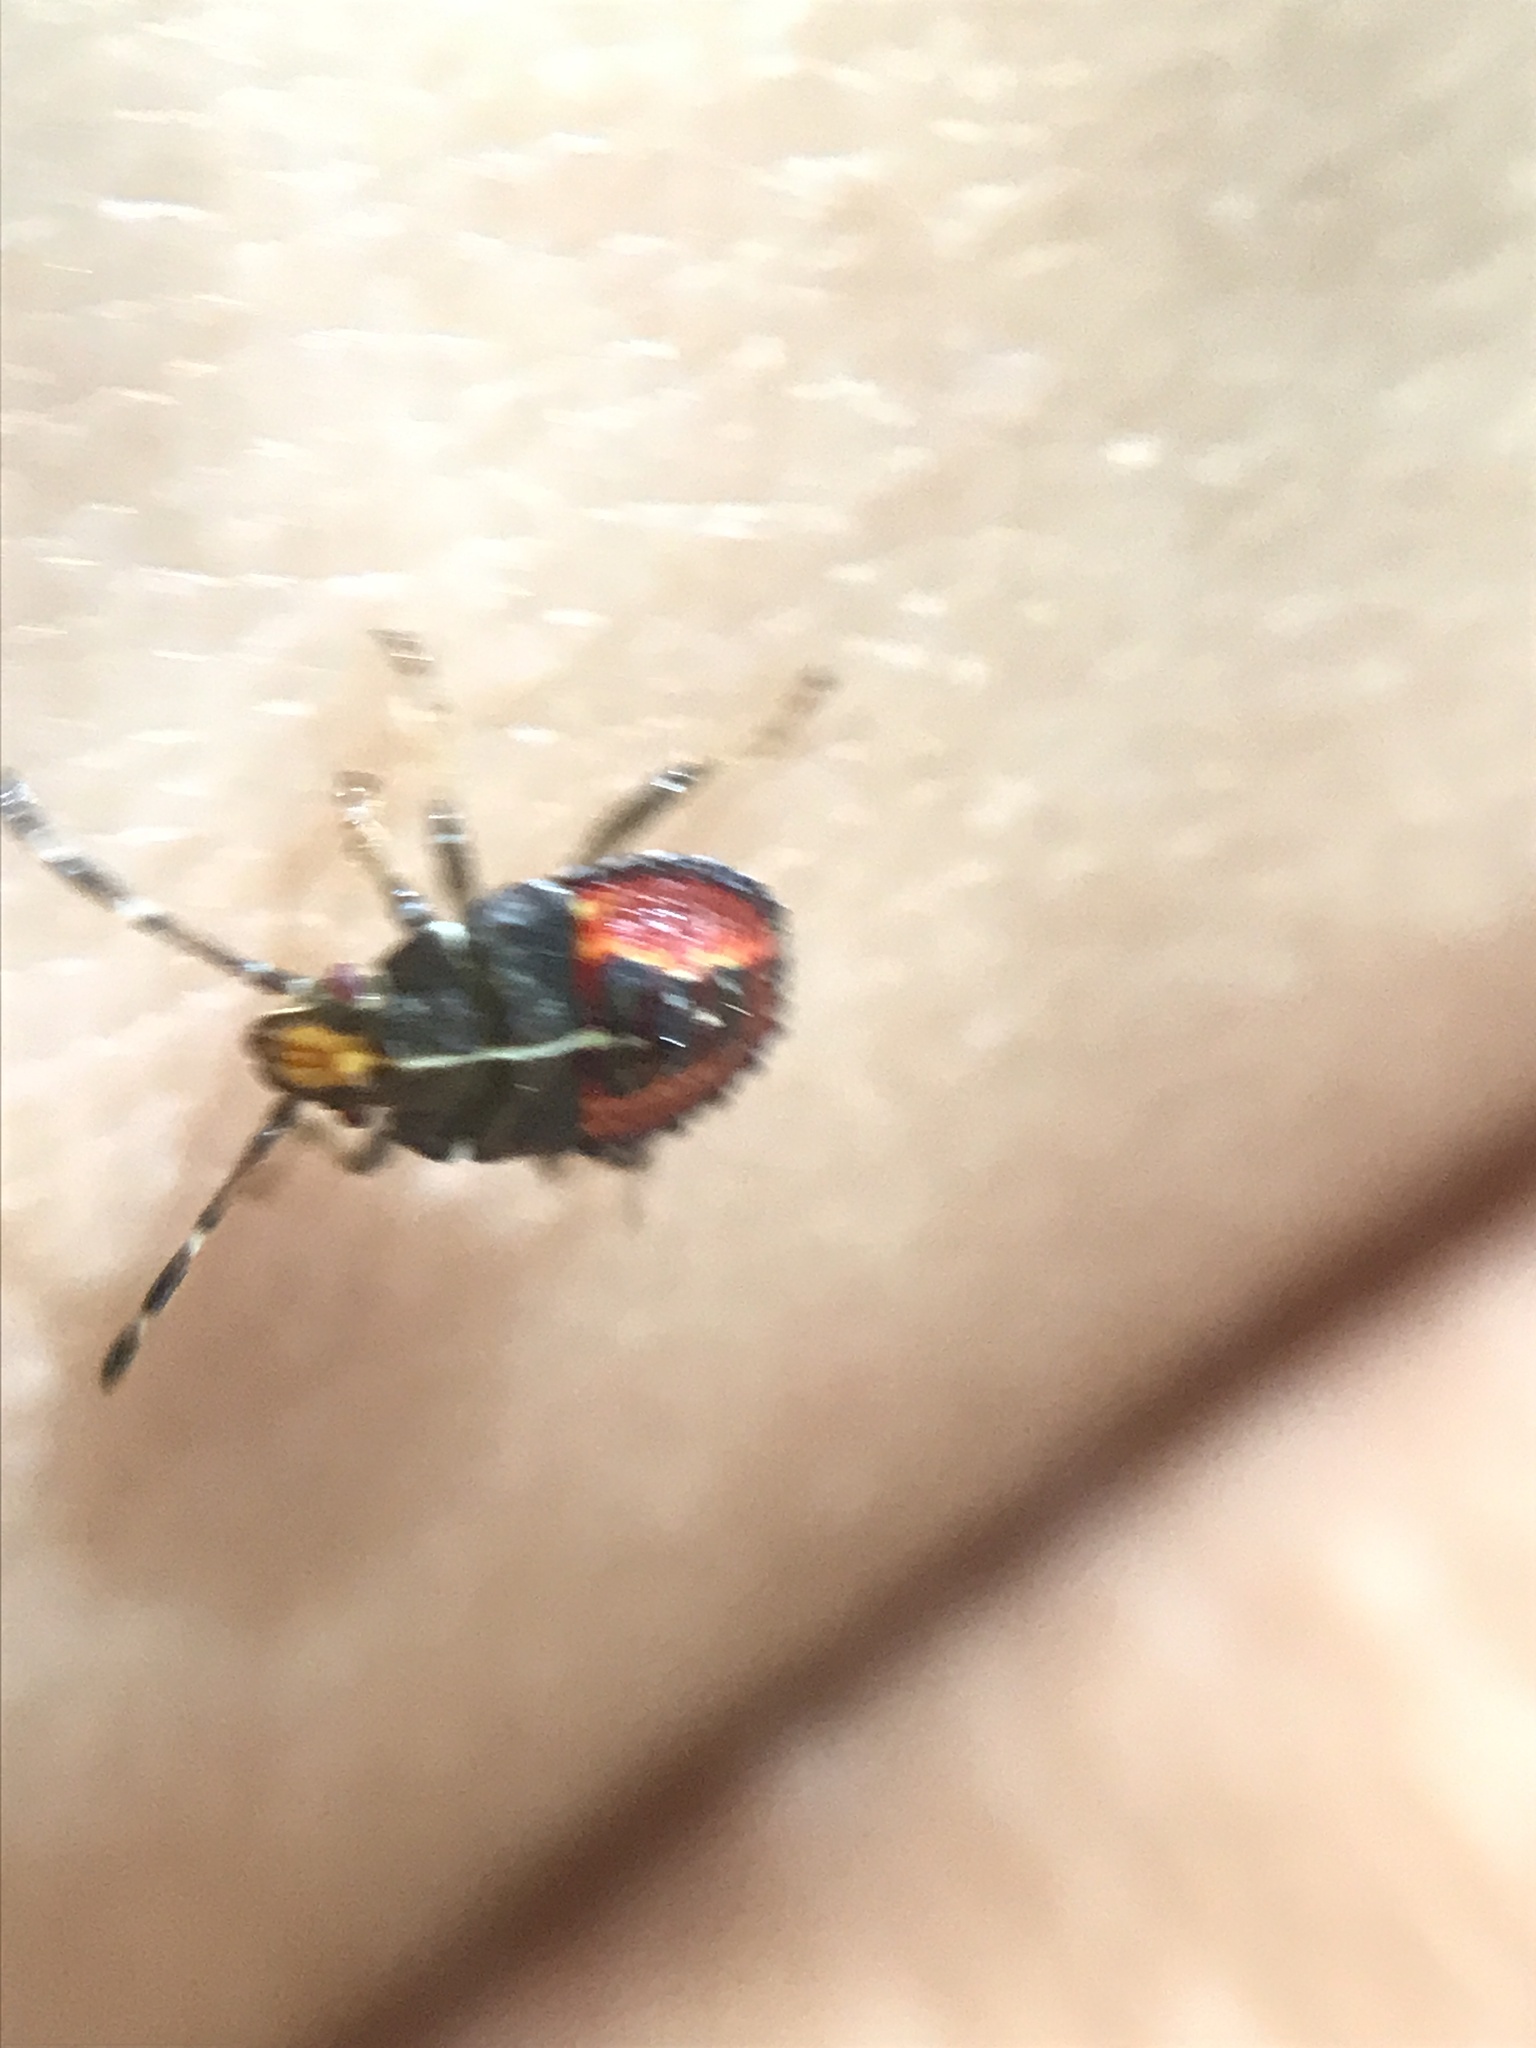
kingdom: Animalia
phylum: Arthropoda
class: Insecta
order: Hemiptera
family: Acanthosomatidae
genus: Sinopla
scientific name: Sinopla perpunctatus
